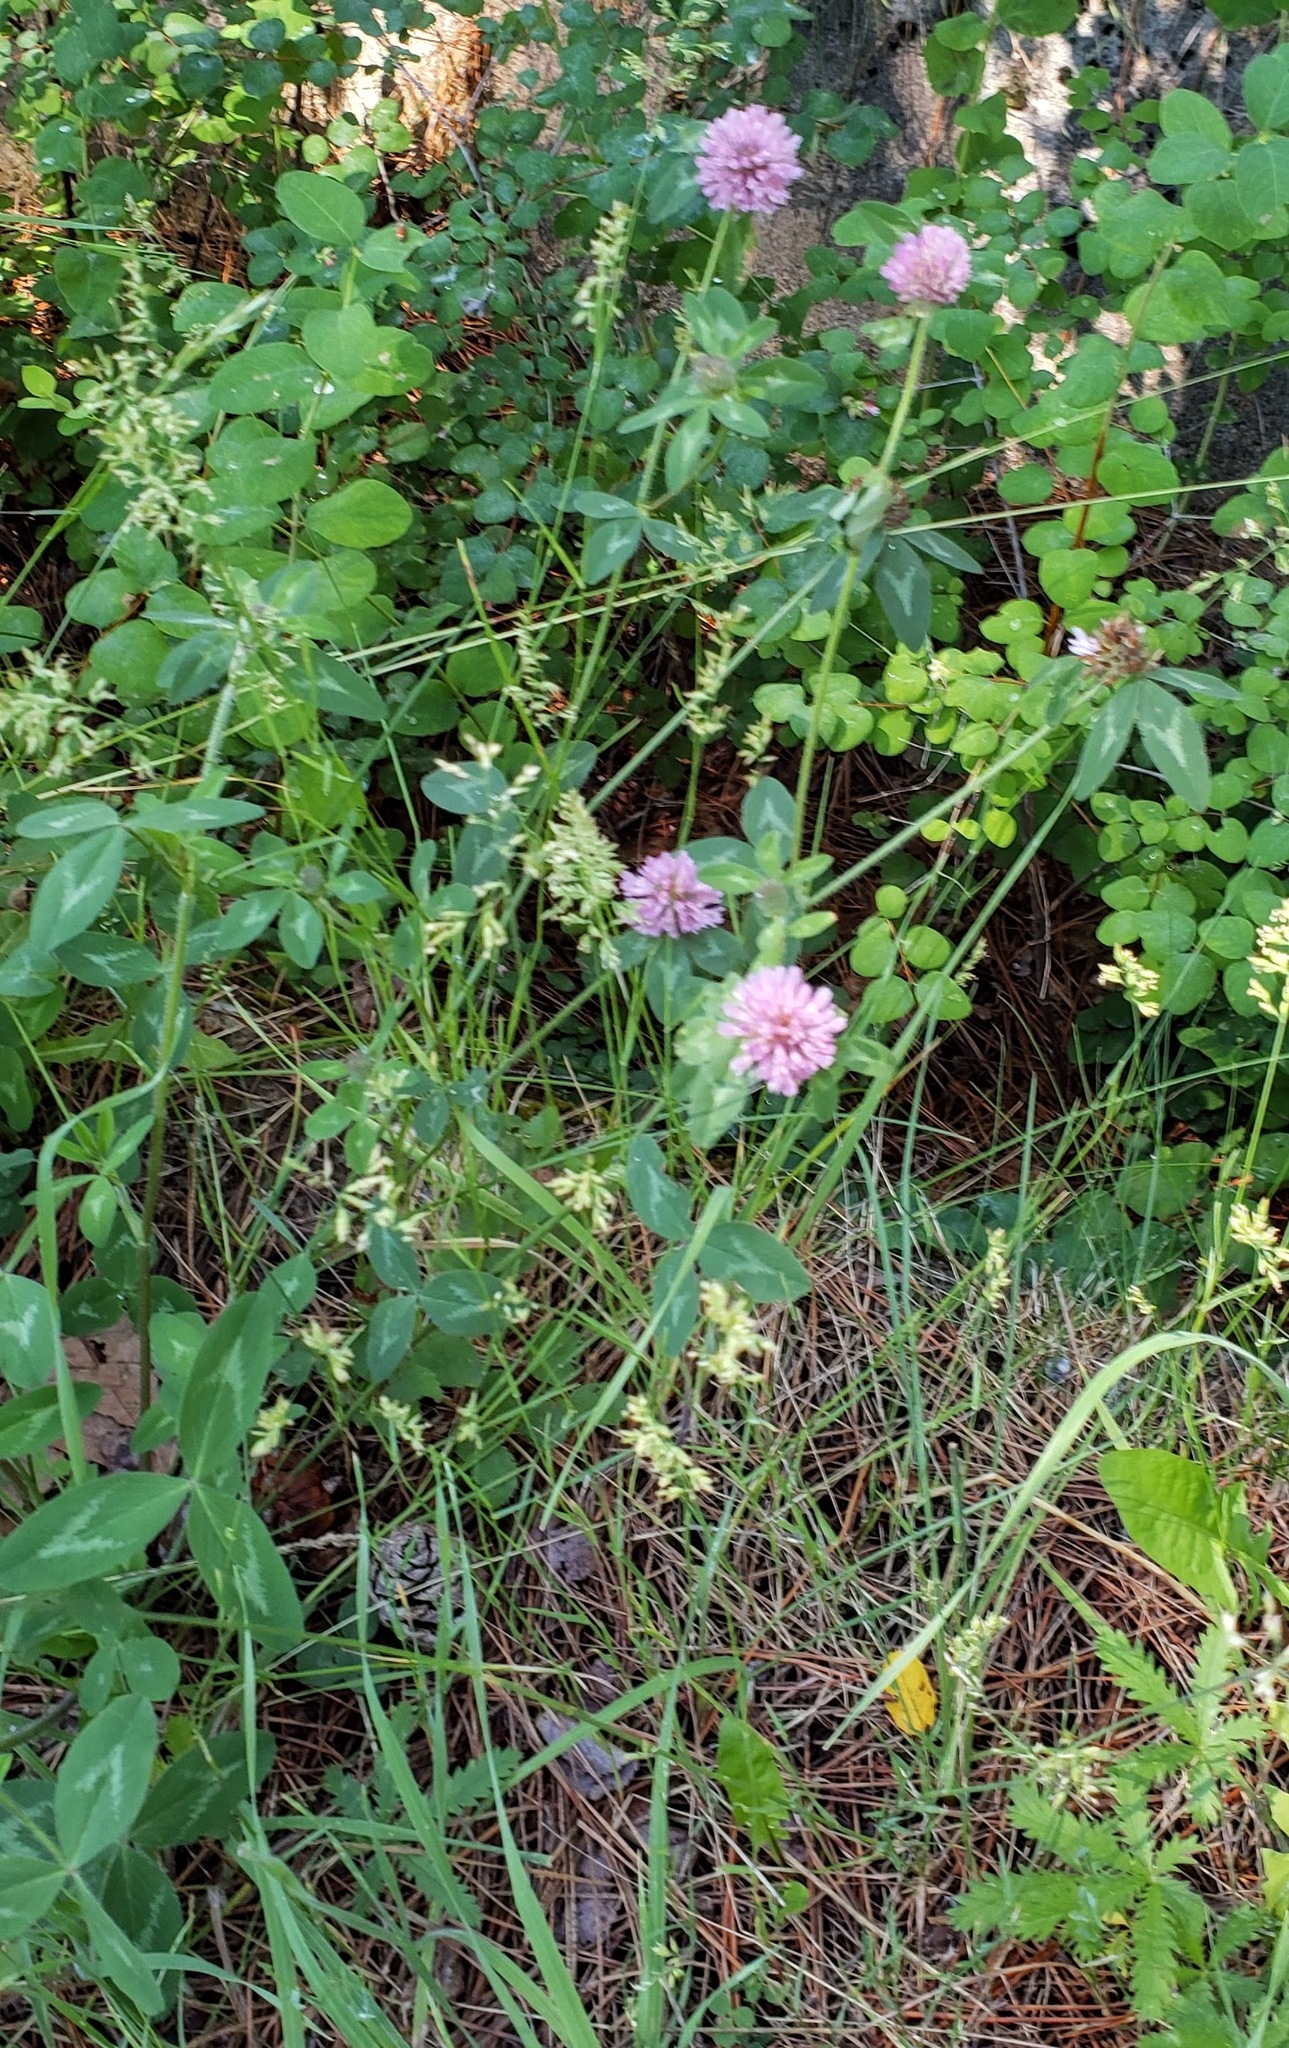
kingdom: Plantae
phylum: Tracheophyta
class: Magnoliopsida
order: Fabales
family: Fabaceae
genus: Trifolium
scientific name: Trifolium pratense
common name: Red clover
